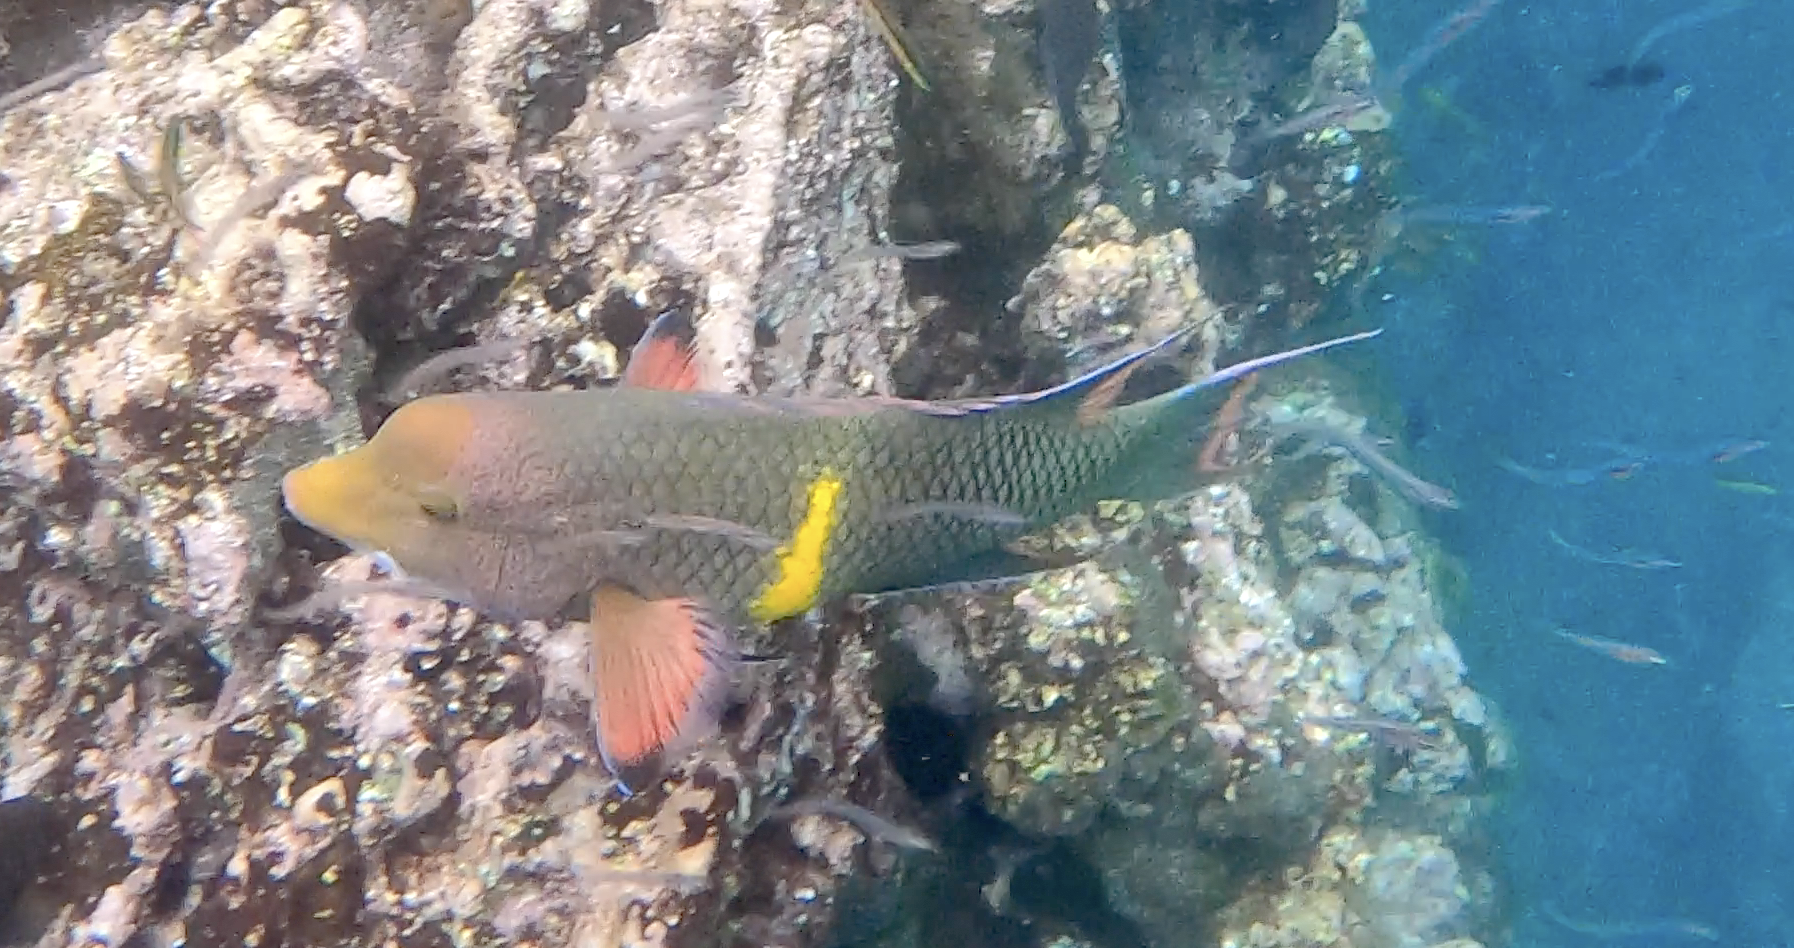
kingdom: Animalia
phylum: Chordata
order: Perciformes
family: Labridae
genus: Bodianus
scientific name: Bodianus diplotaenia
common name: Mexican hogfish
